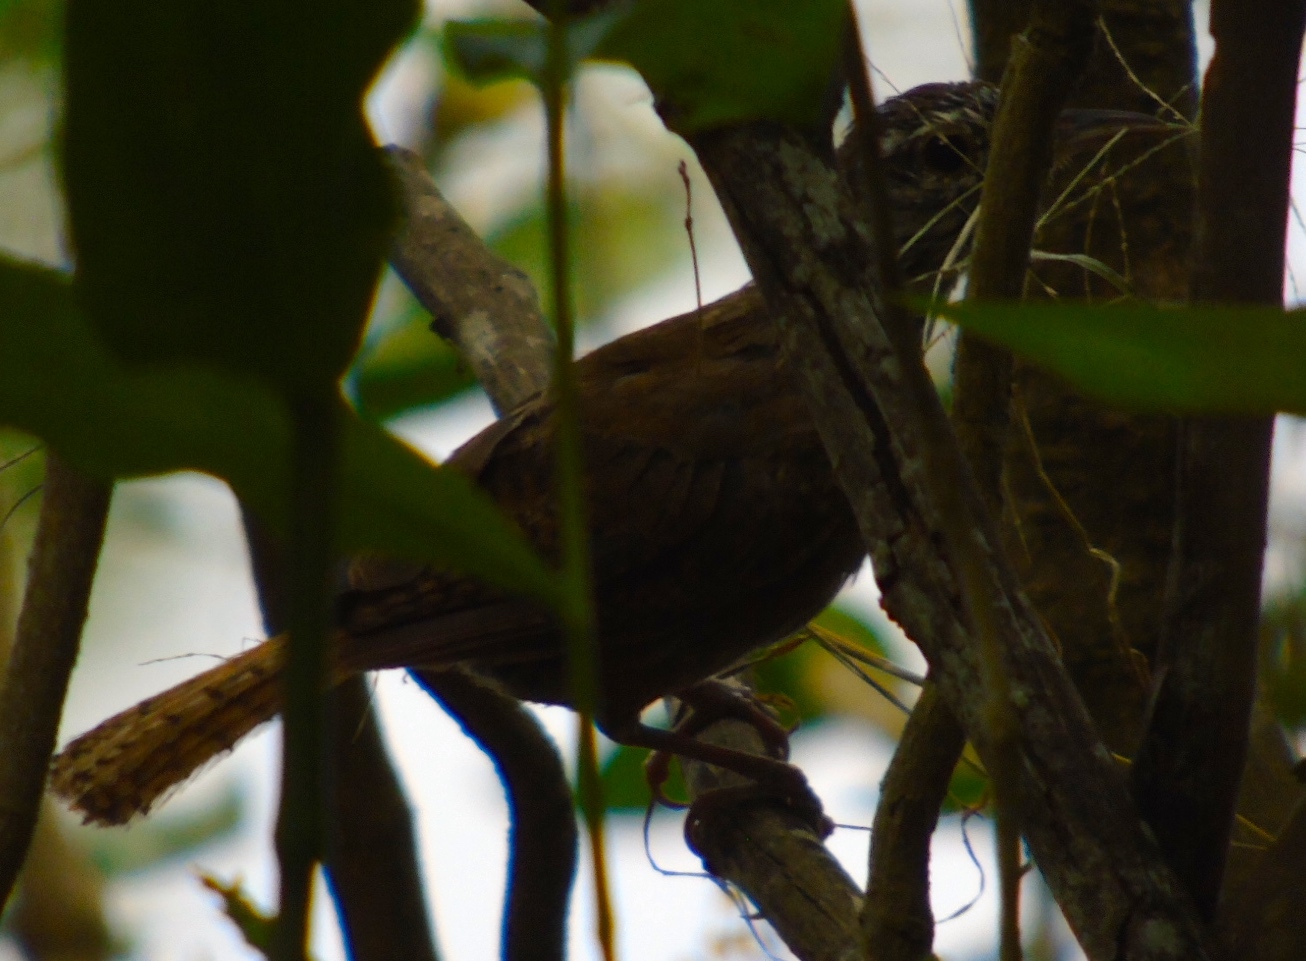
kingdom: Animalia
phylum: Chordata
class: Aves
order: Passeriformes
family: Troglodytidae
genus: Thryophilus
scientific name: Thryophilus sinaloa
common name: Sinaloa wren
